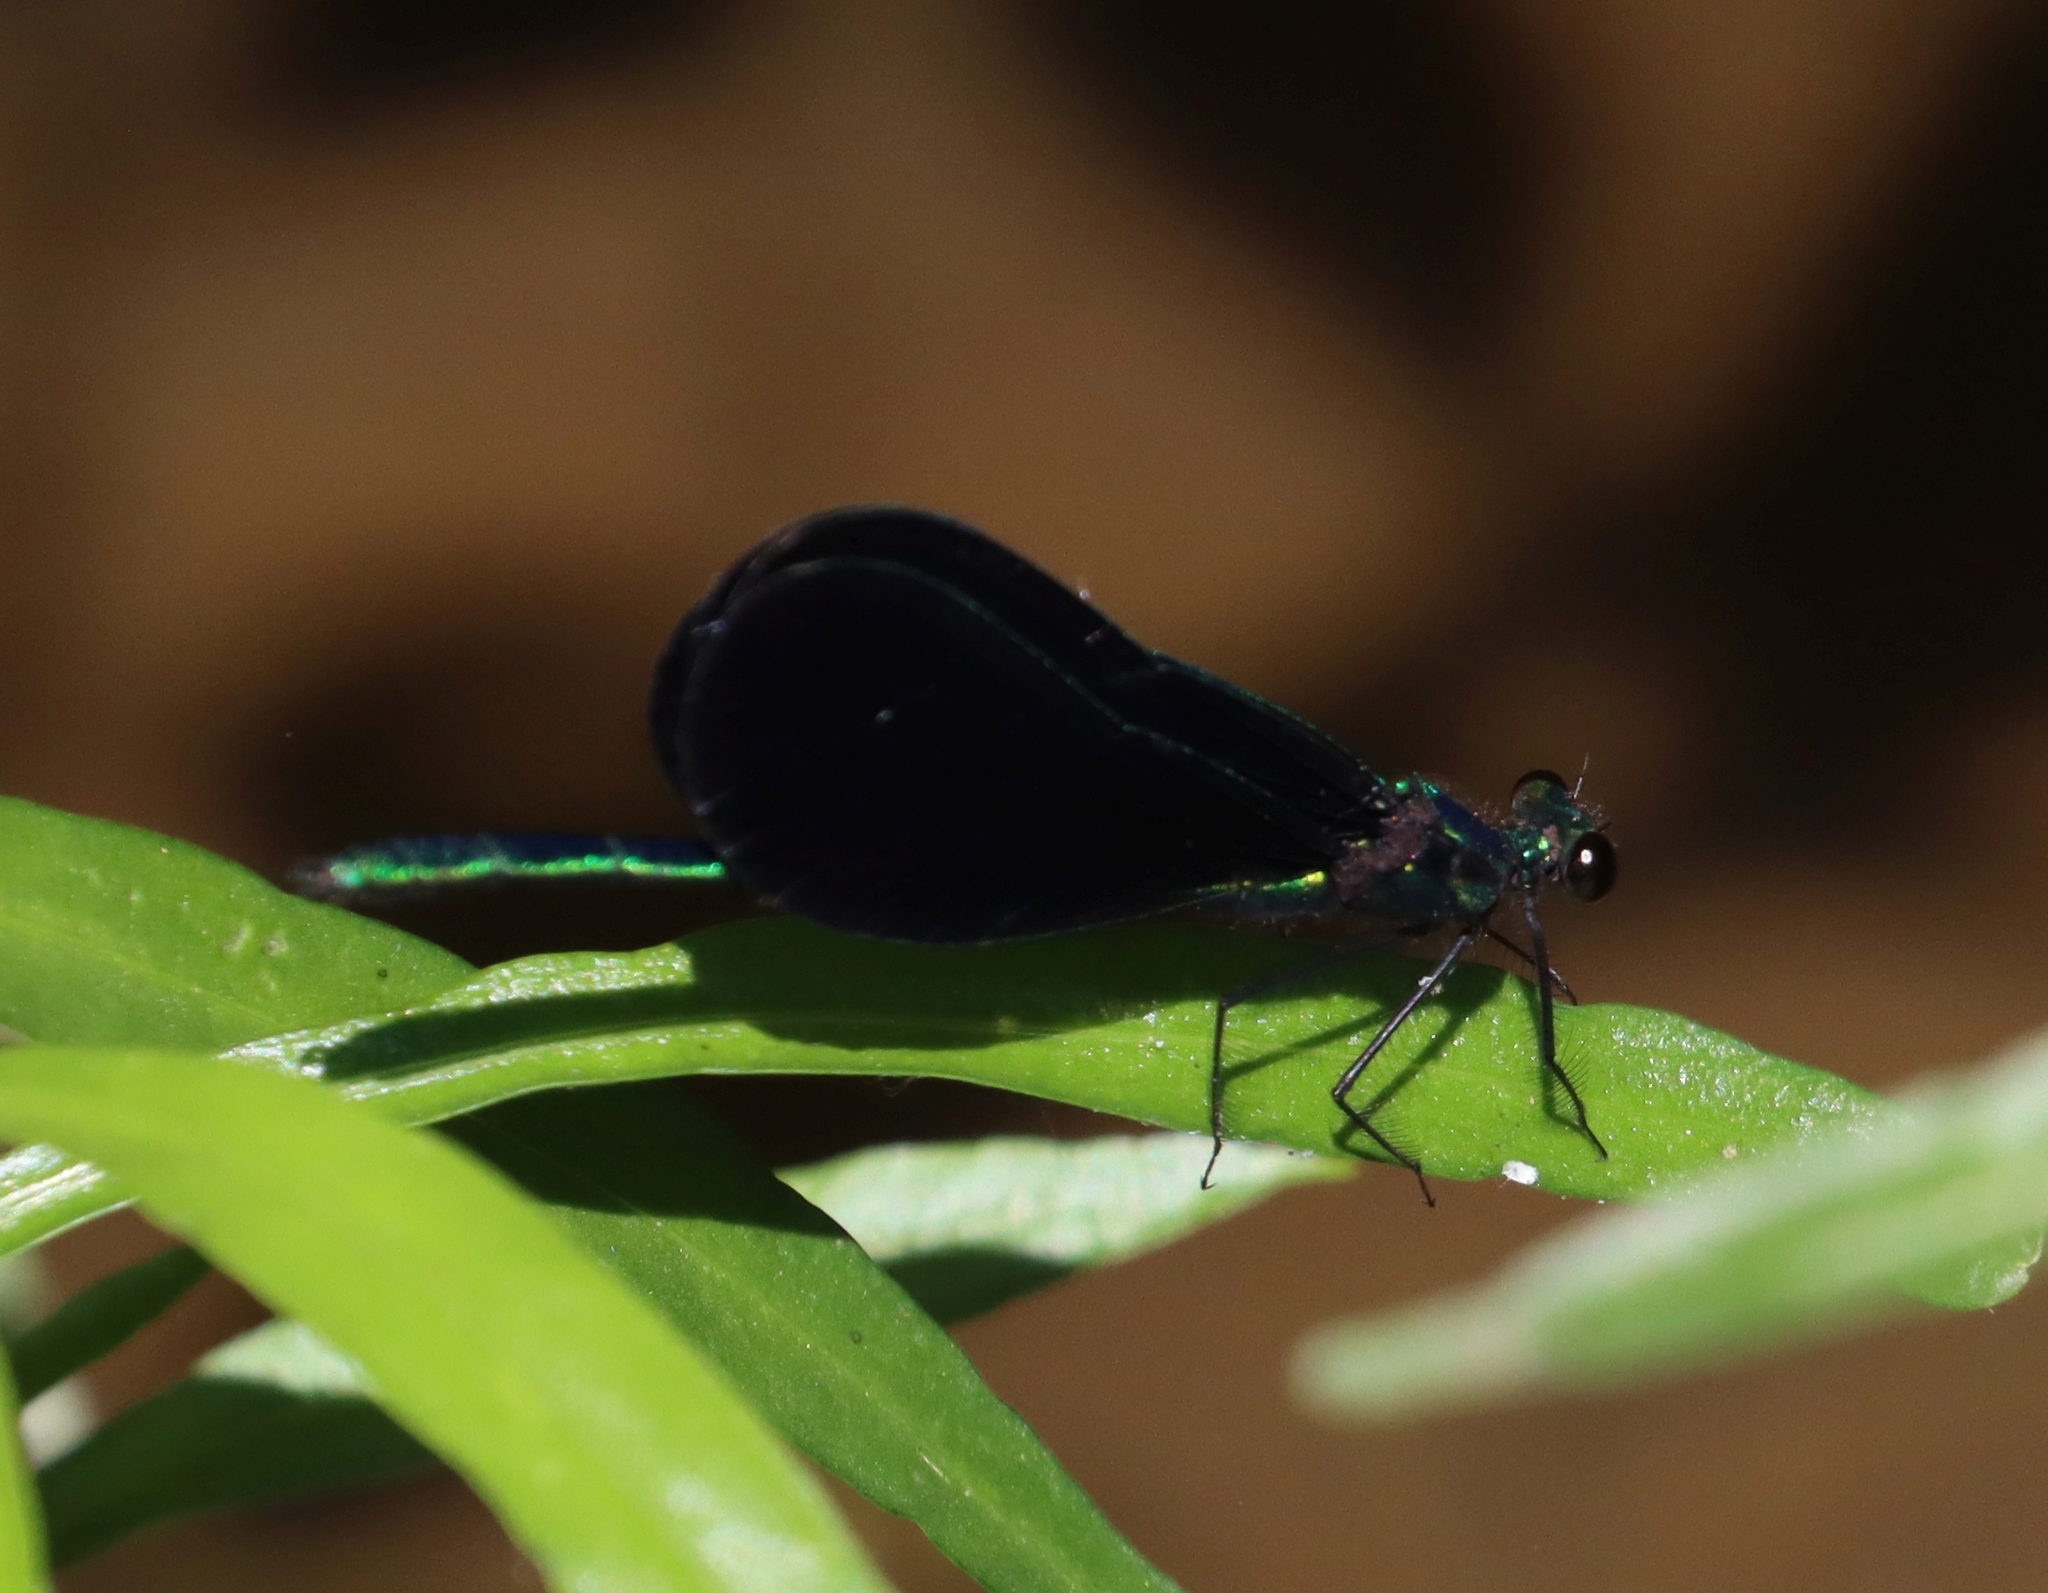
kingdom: Animalia
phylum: Arthropoda
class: Insecta
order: Odonata
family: Calopterygidae
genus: Calopteryx
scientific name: Calopteryx maculata
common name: Ebony jewelwing
